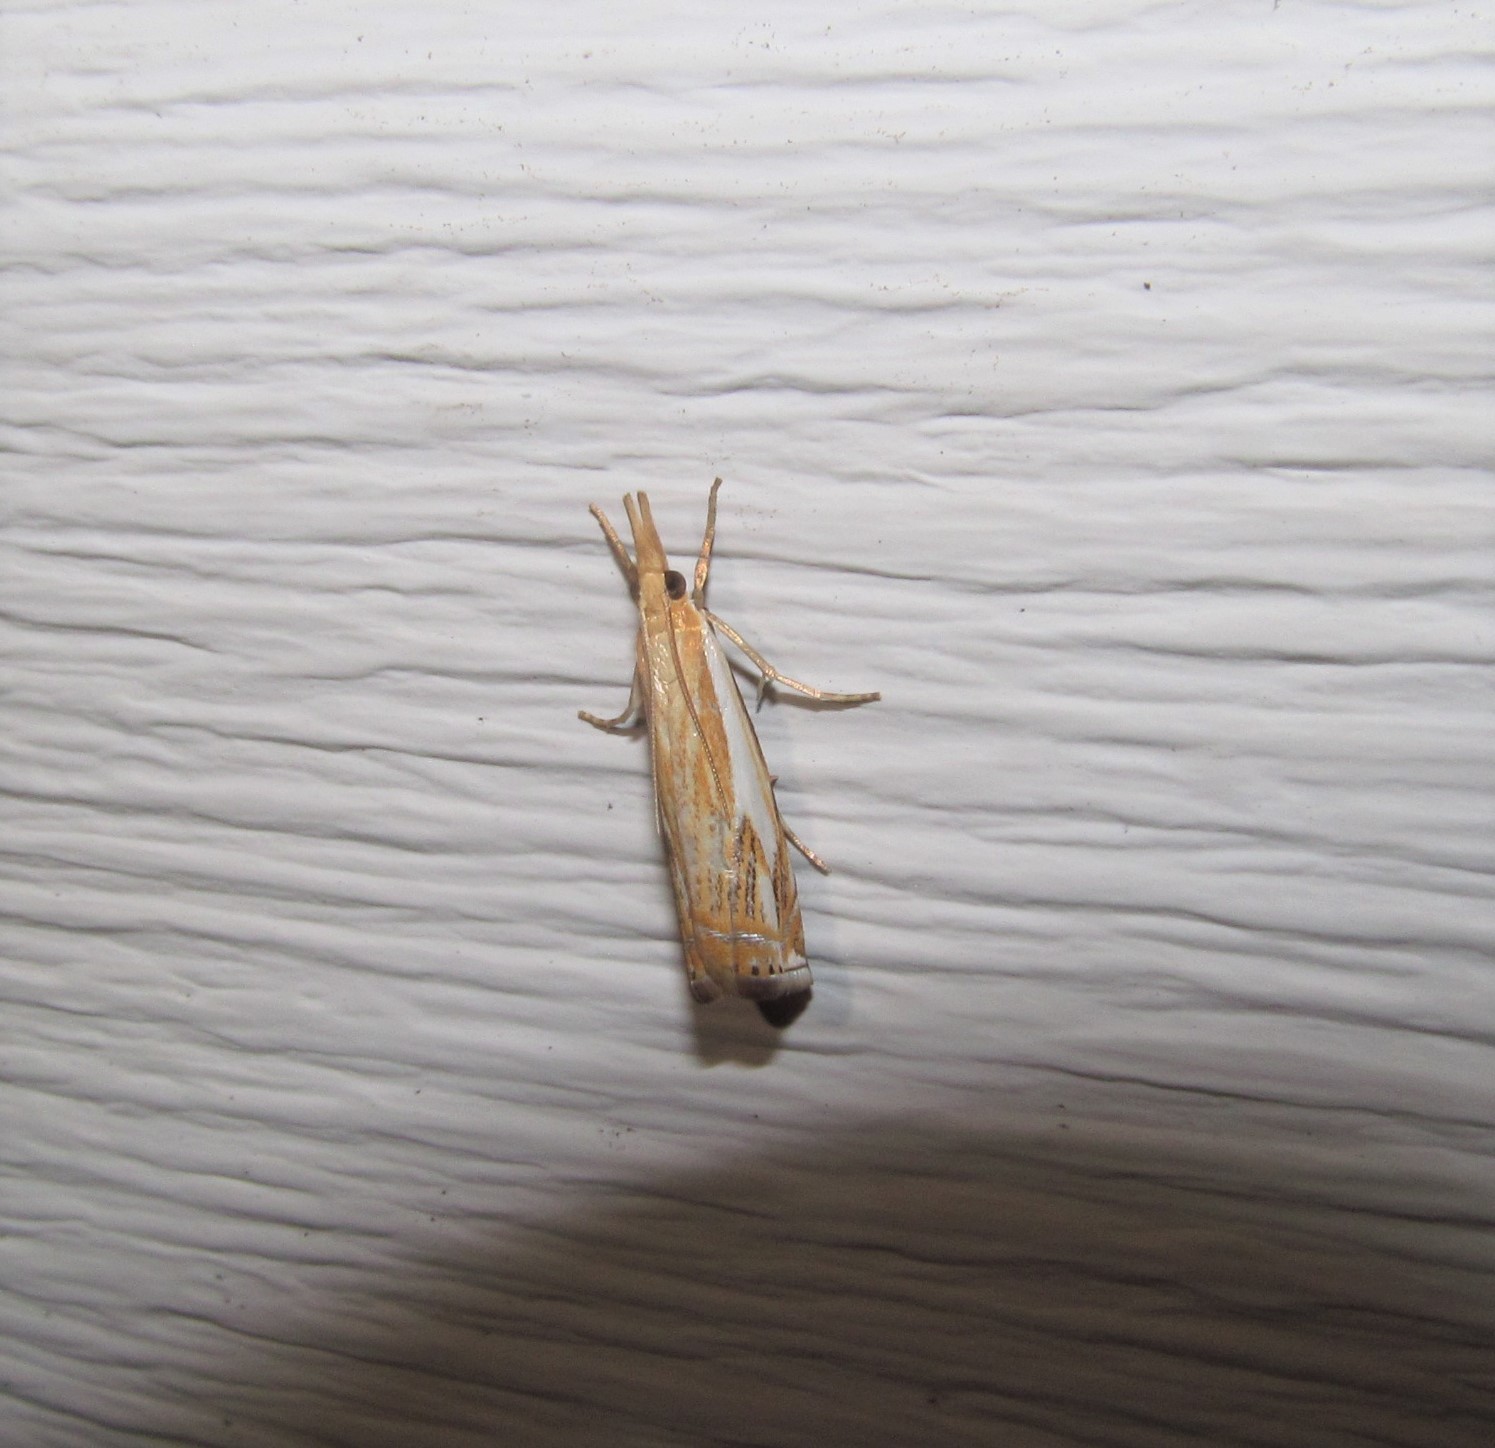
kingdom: Animalia
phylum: Arthropoda
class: Insecta
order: Lepidoptera
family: Crambidae
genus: Crambus
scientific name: Crambus agitatellus
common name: Double-banded grass-veneer
